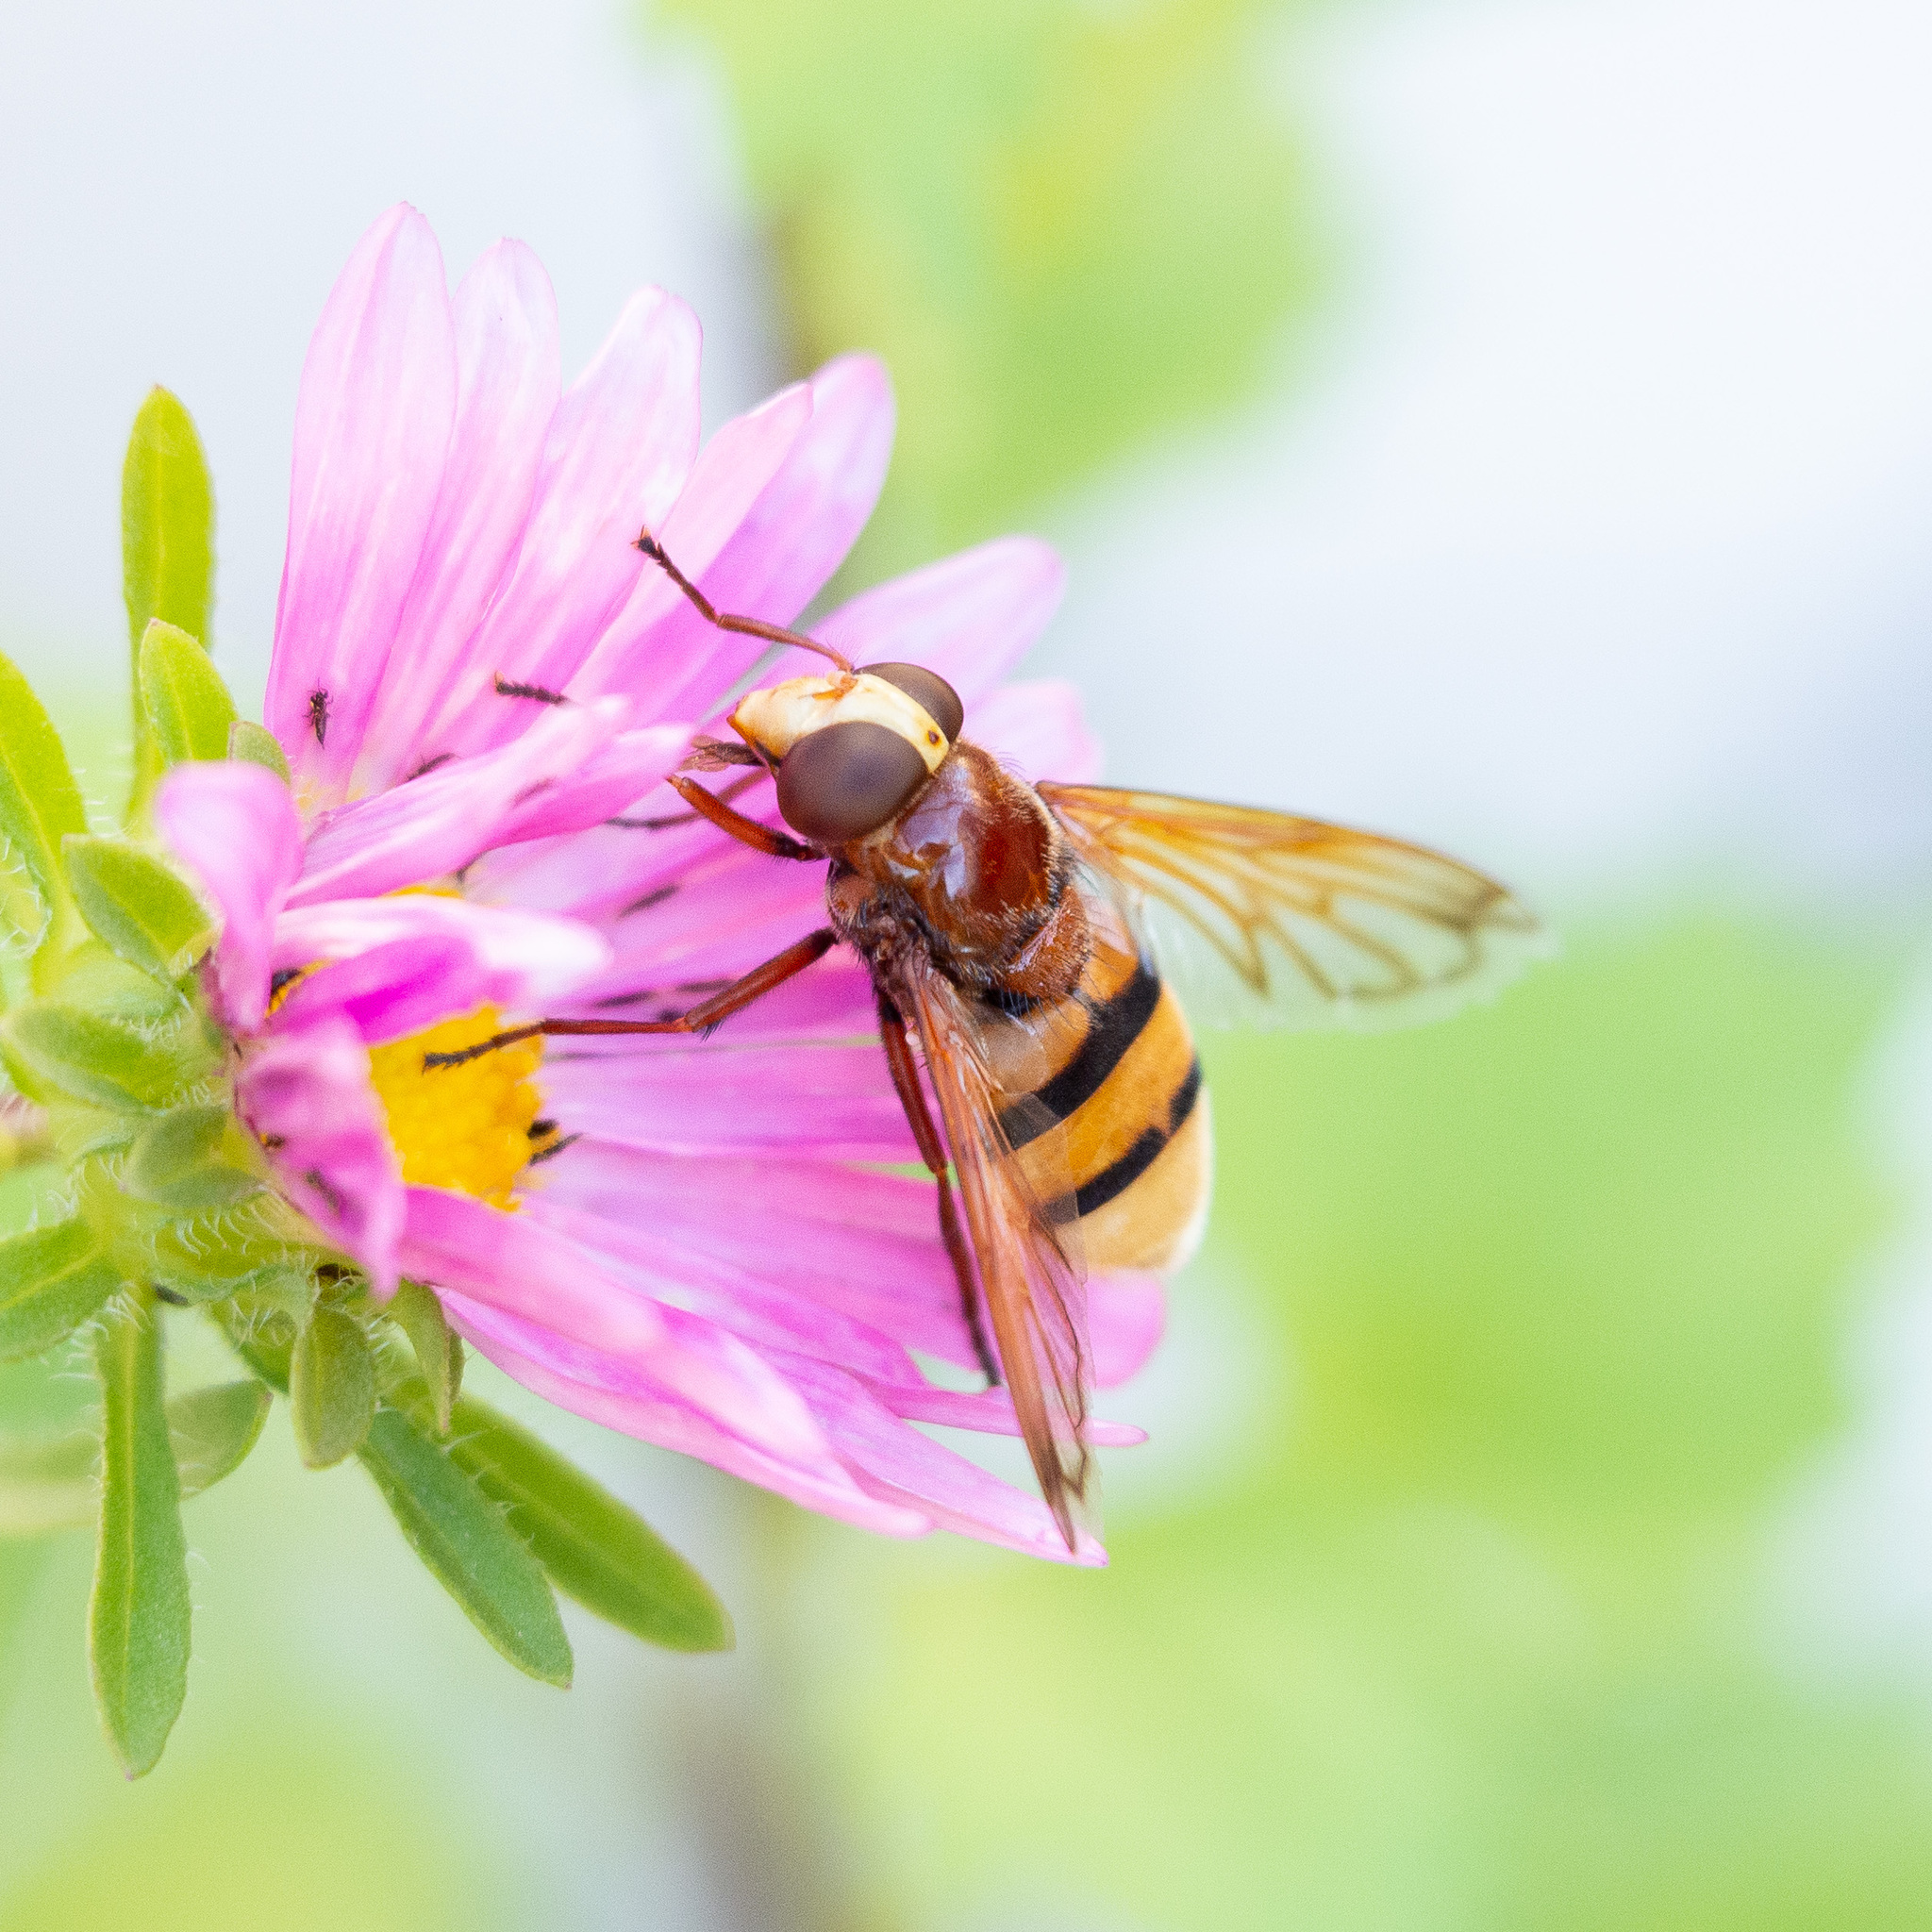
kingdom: Animalia
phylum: Arthropoda
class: Insecta
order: Diptera
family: Syrphidae
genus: Volucella
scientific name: Volucella zonaria
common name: Hornet hoverfly
